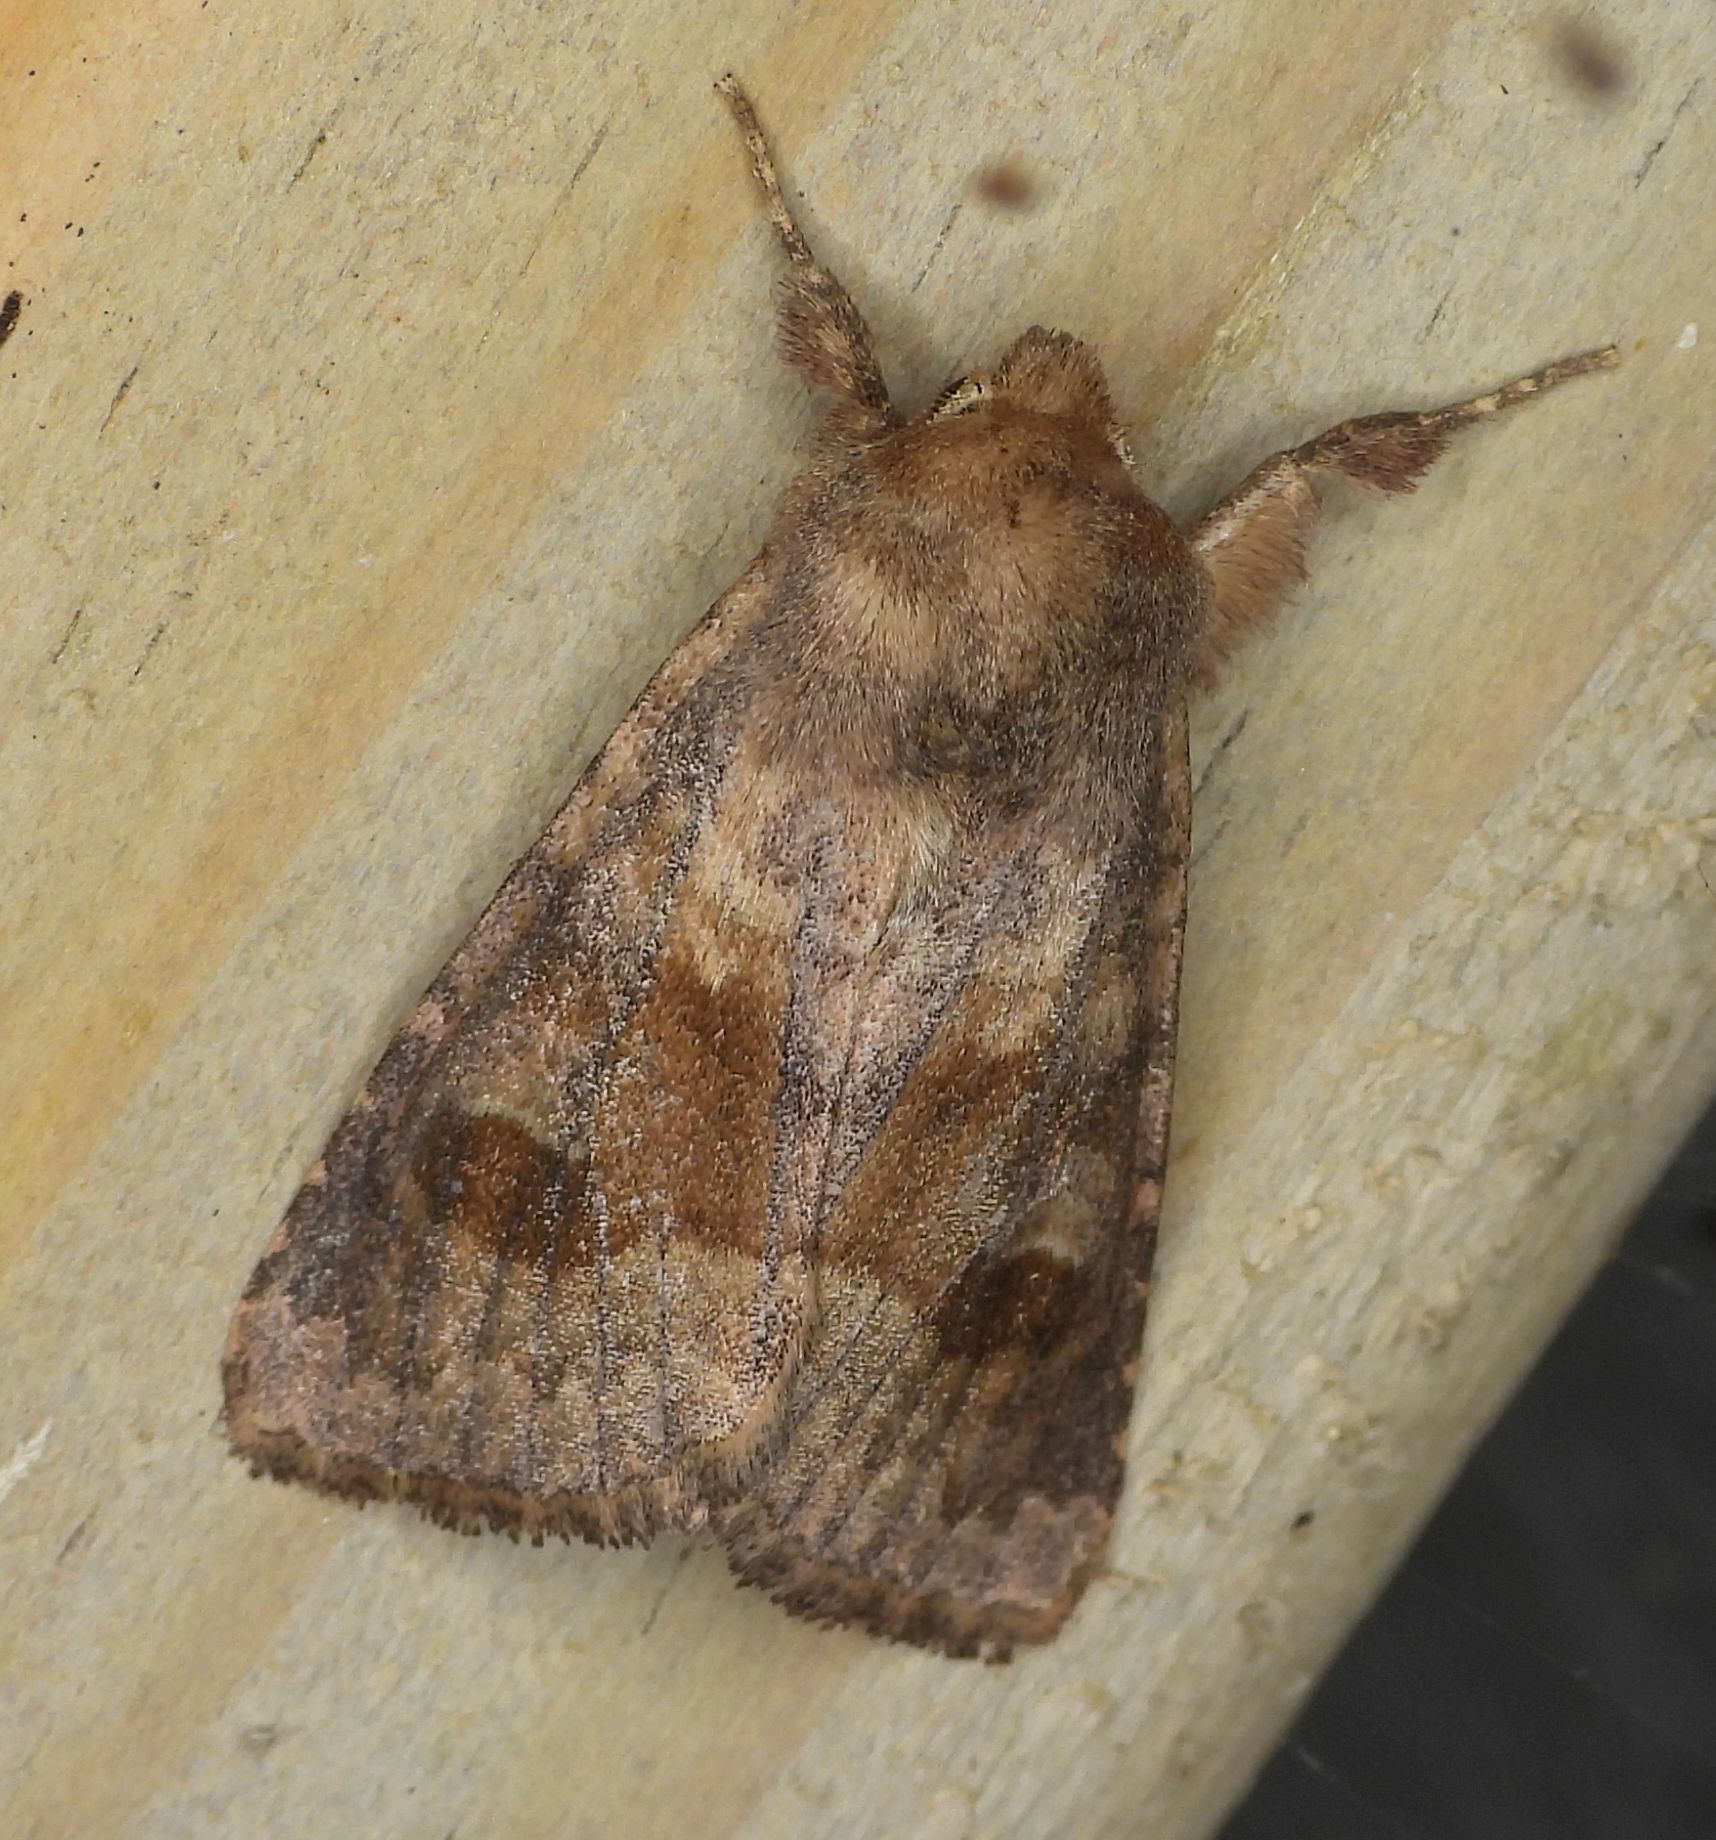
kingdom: Animalia
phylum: Arthropoda
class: Insecta
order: Lepidoptera
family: Noctuidae
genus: Nephelodes
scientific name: Nephelodes minians
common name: Bronzed cutworm
